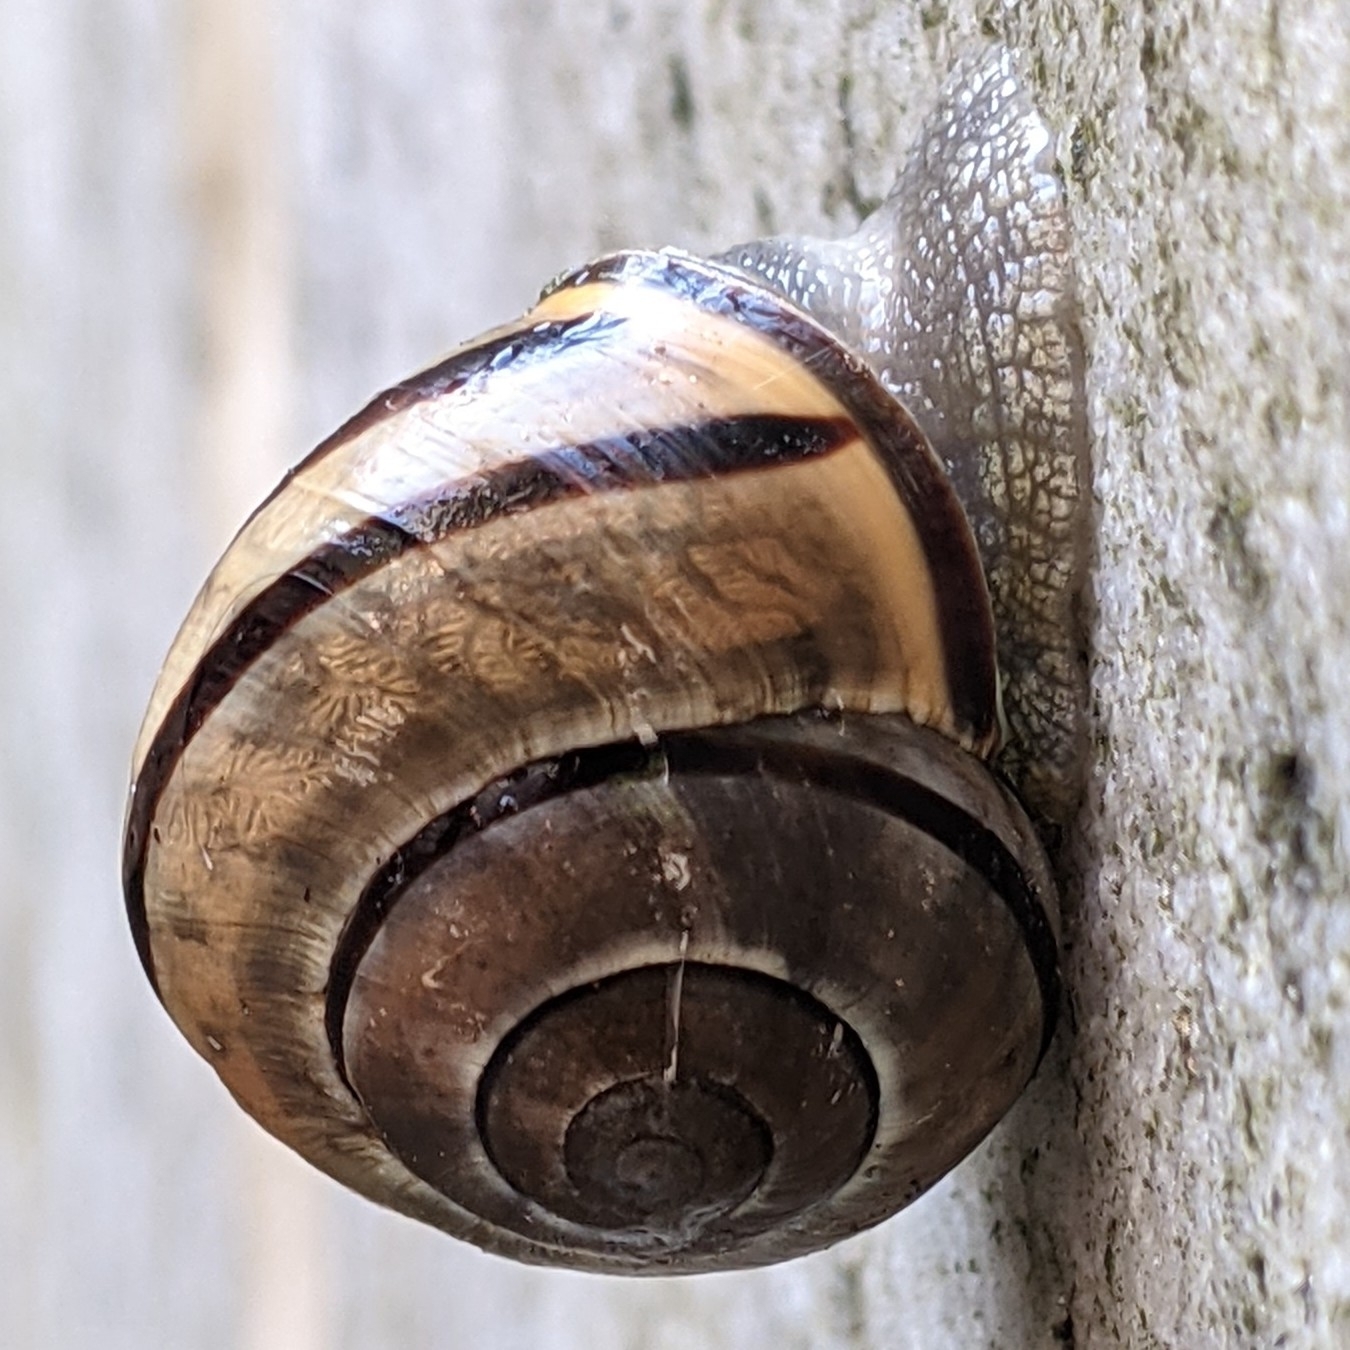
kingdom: Animalia
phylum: Mollusca
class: Gastropoda
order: Stylommatophora
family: Helicidae
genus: Cepaea
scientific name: Cepaea nemoralis
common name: Grovesnail
